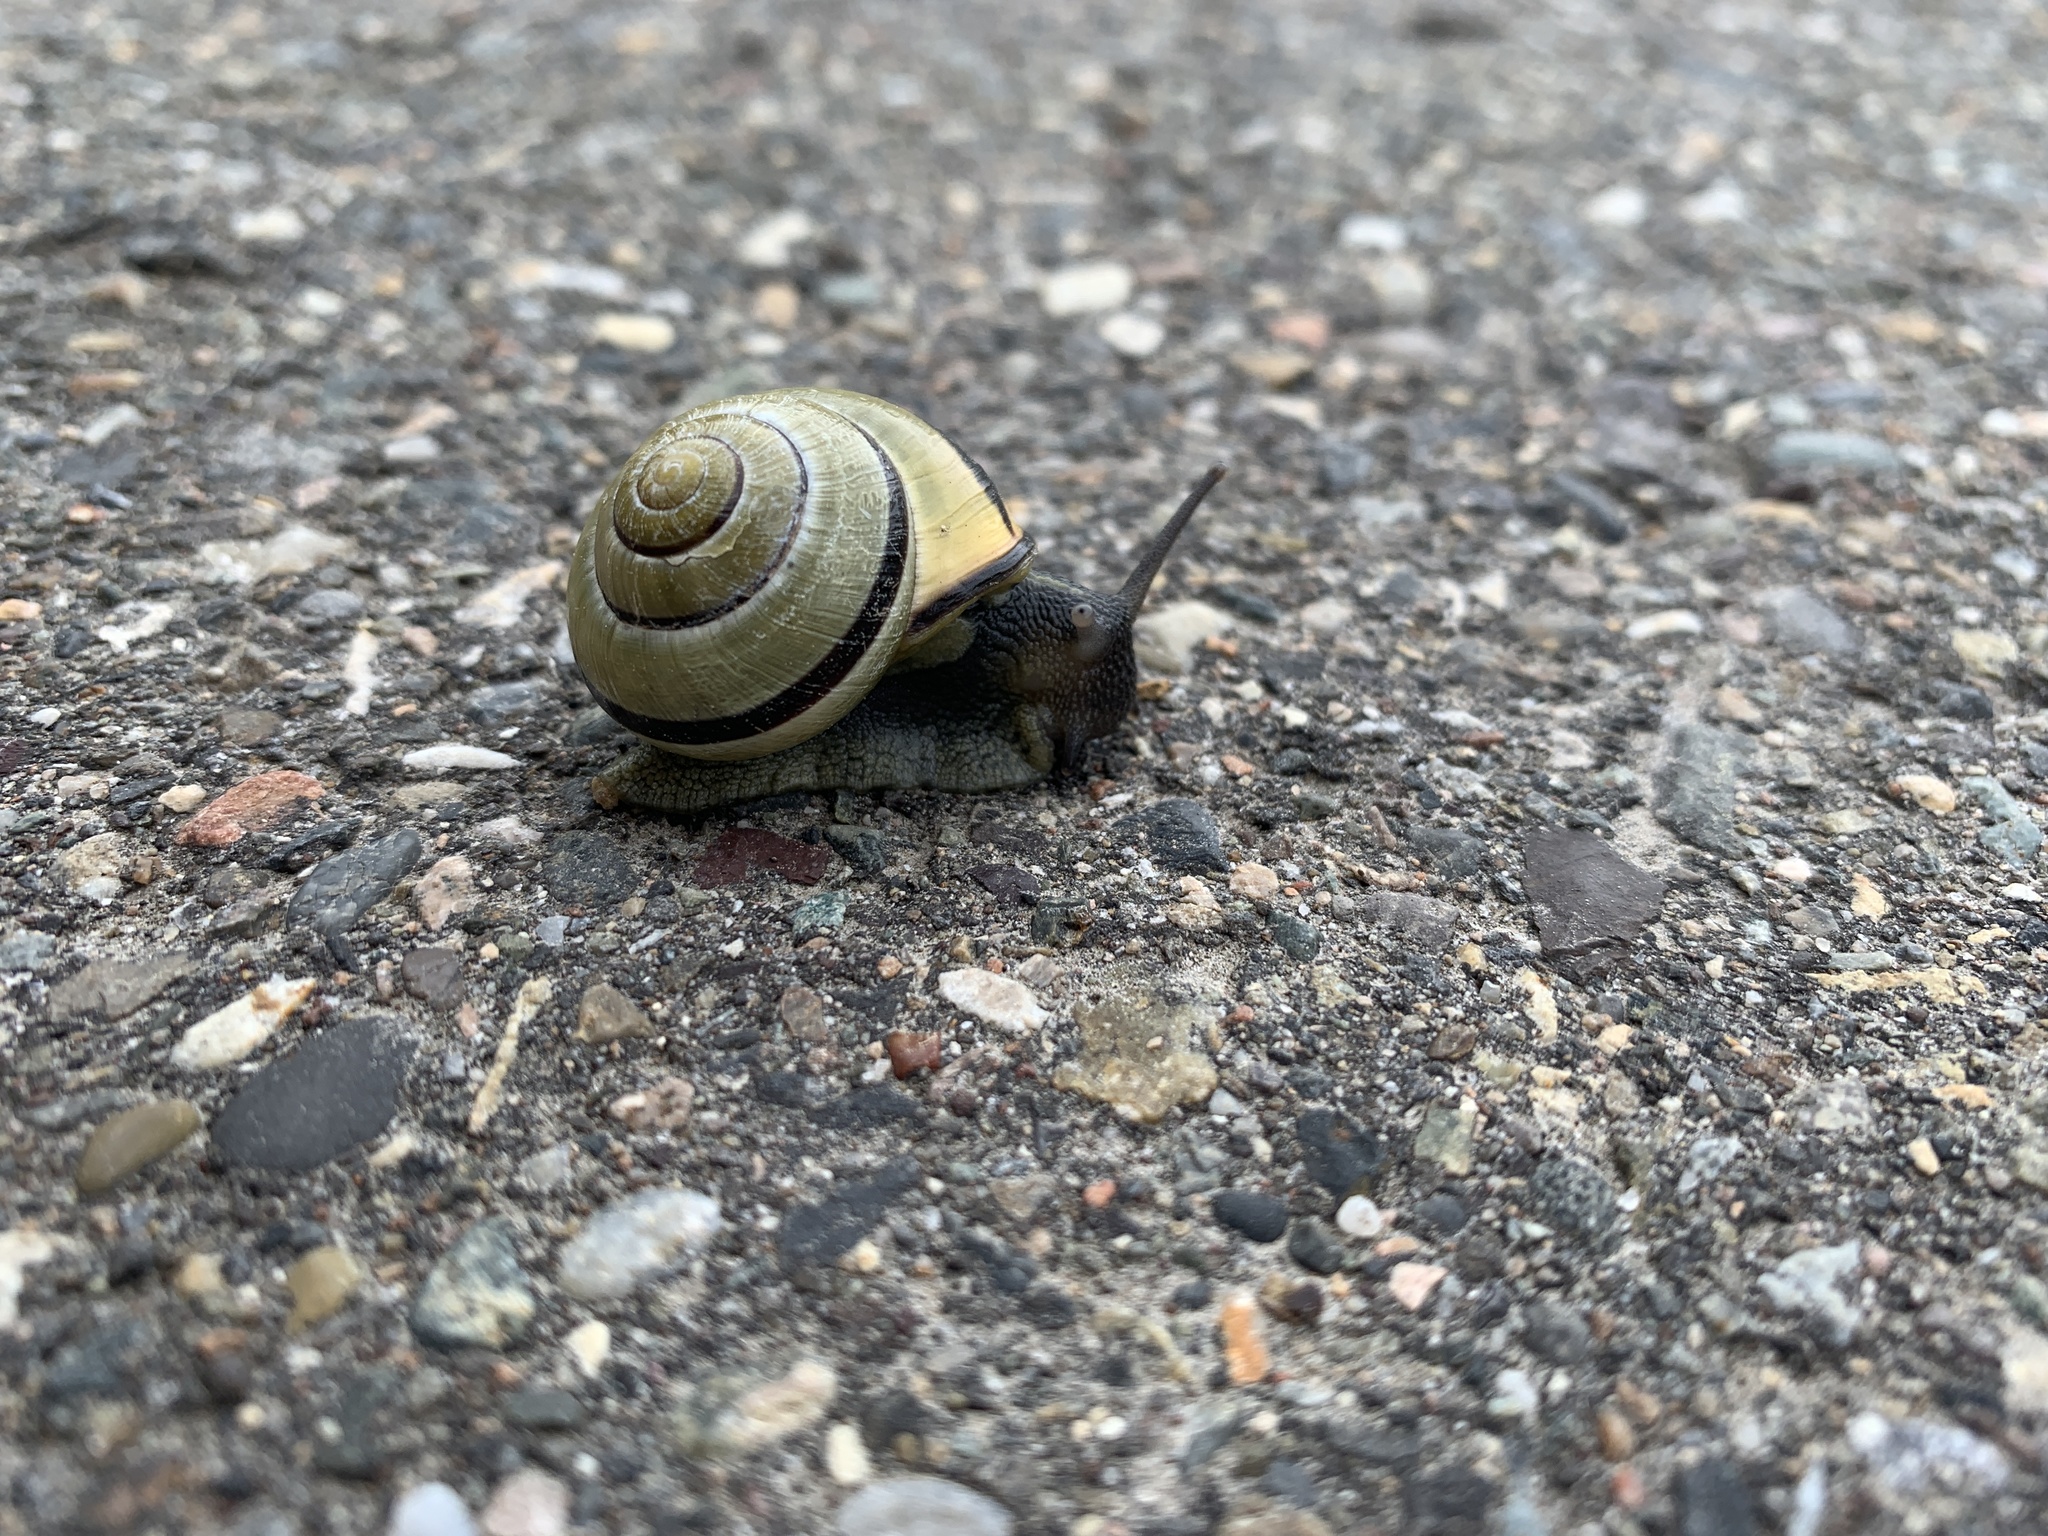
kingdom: Animalia
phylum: Mollusca
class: Gastropoda
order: Stylommatophora
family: Helicidae
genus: Cepaea
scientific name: Cepaea nemoralis
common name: Grovesnail
